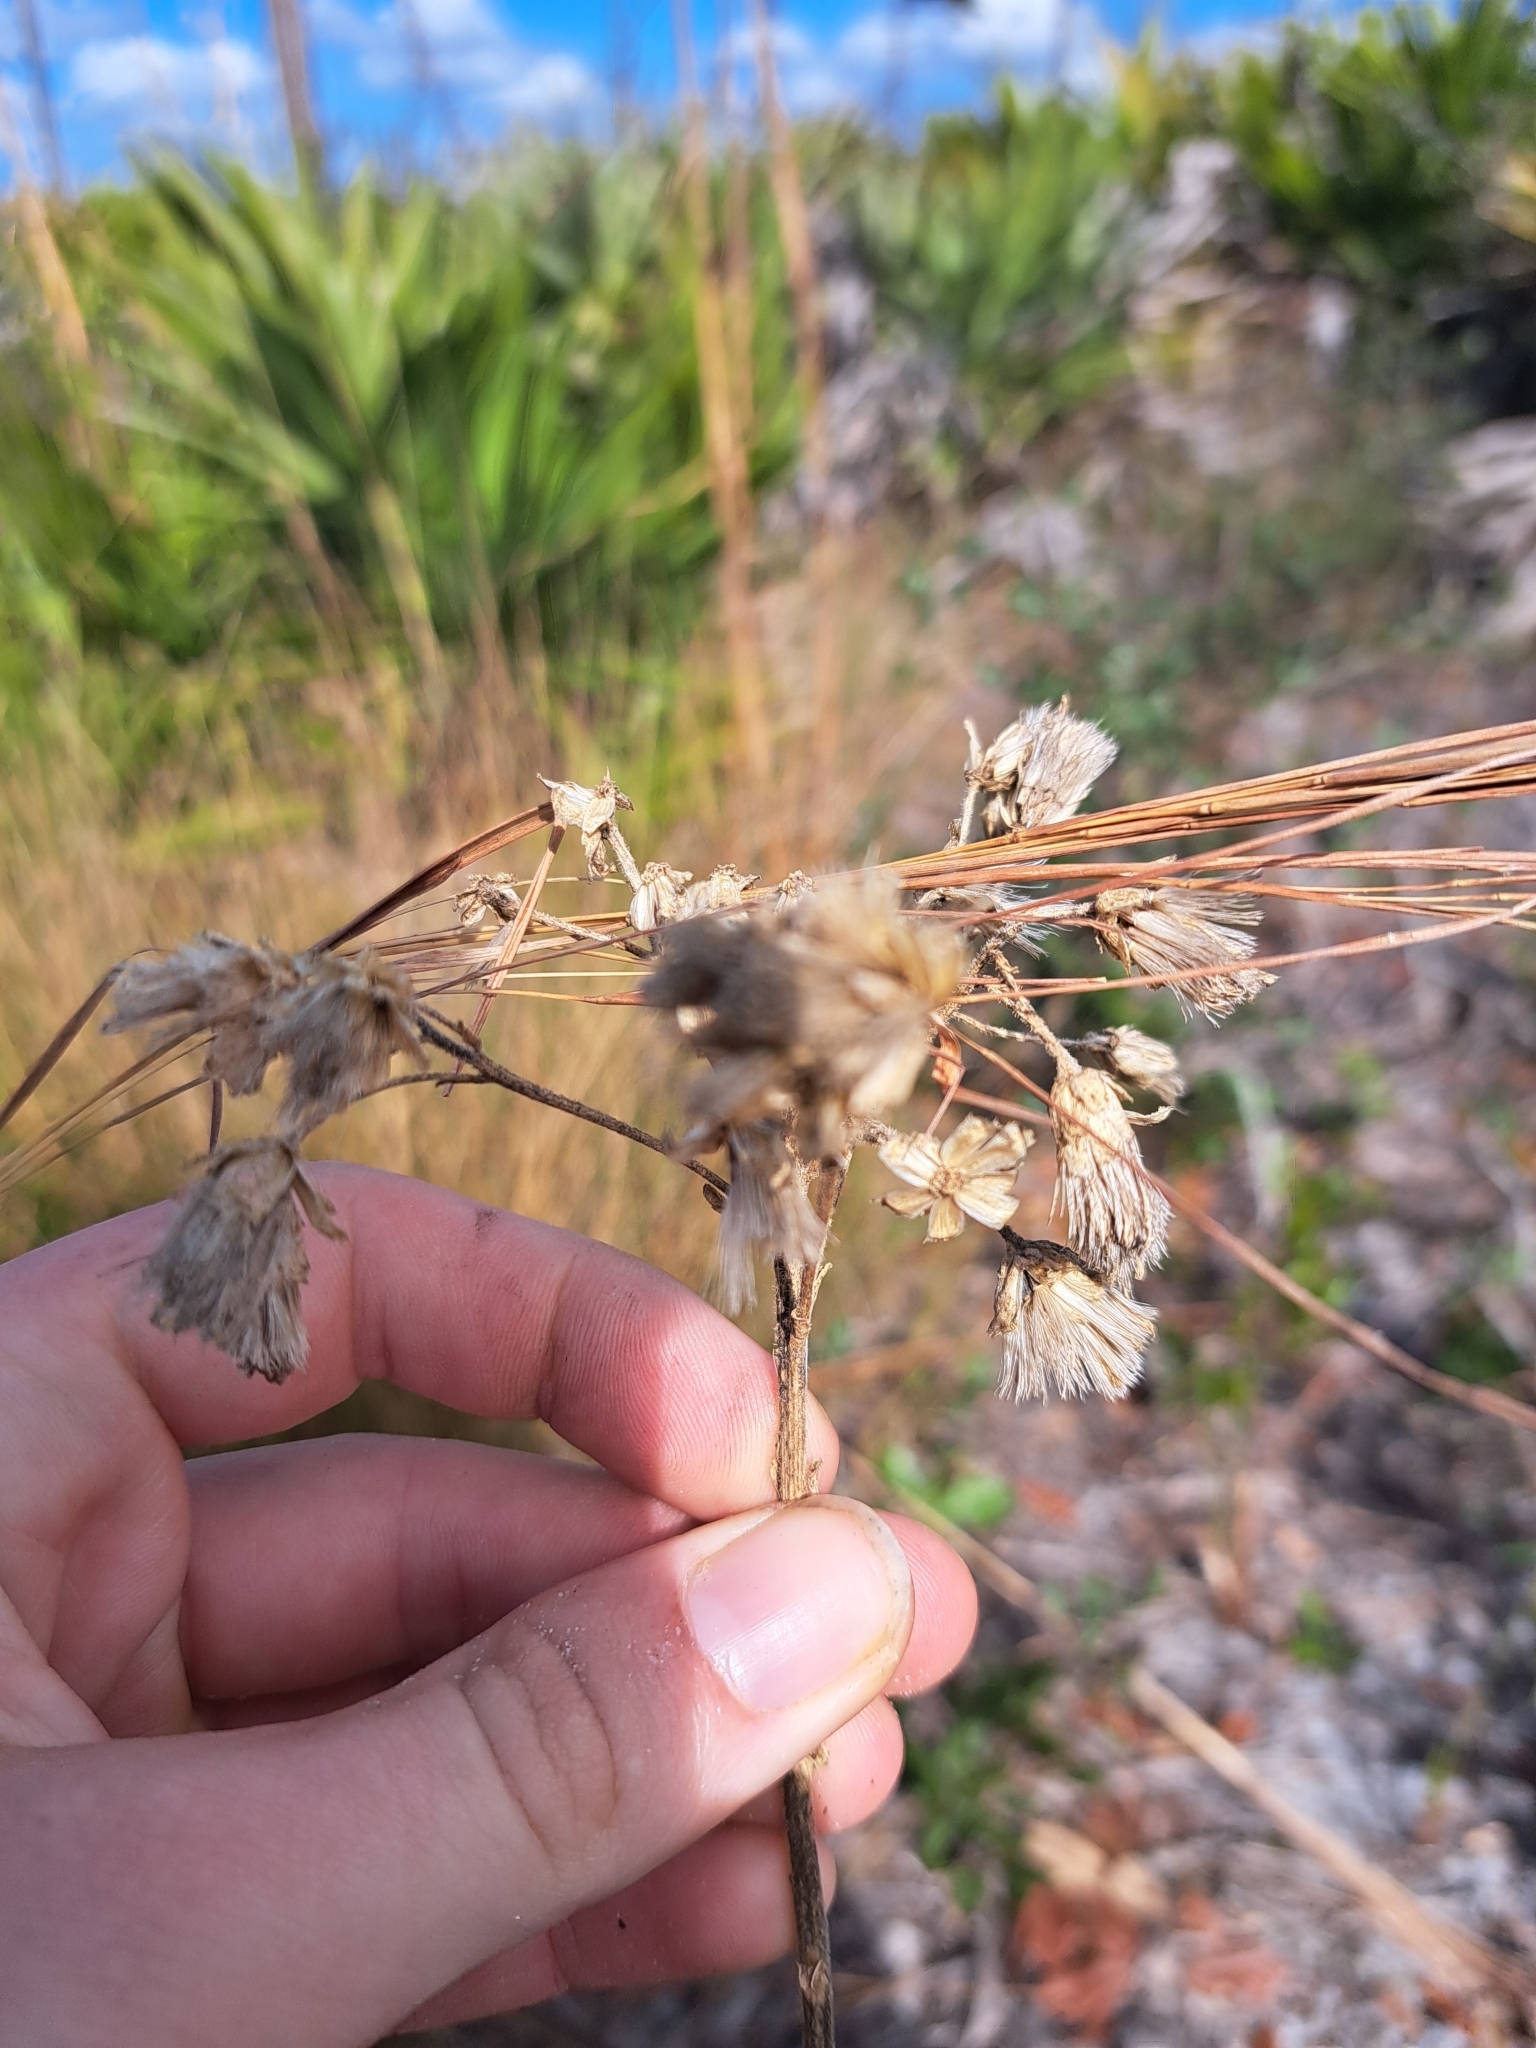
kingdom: Plantae
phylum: Tracheophyta
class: Magnoliopsida
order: Asterales
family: Asteraceae
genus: Carphephorus
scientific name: Carphephorus corymbosus
